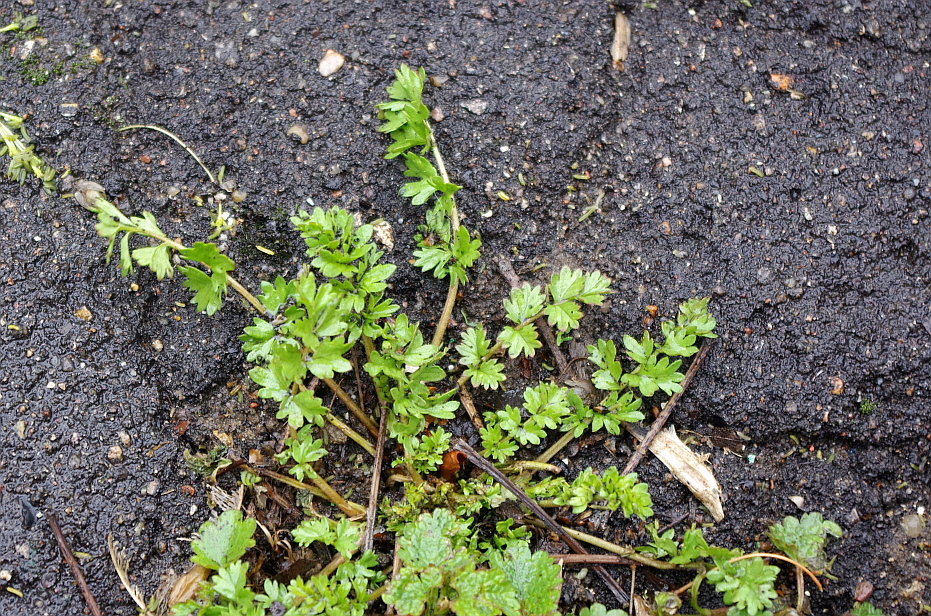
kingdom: Plantae
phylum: Tracheophyta
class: Magnoliopsida
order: Rosales
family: Rosaceae
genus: Potentilla
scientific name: Potentilla supina
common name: Prostrate cinquefoil
